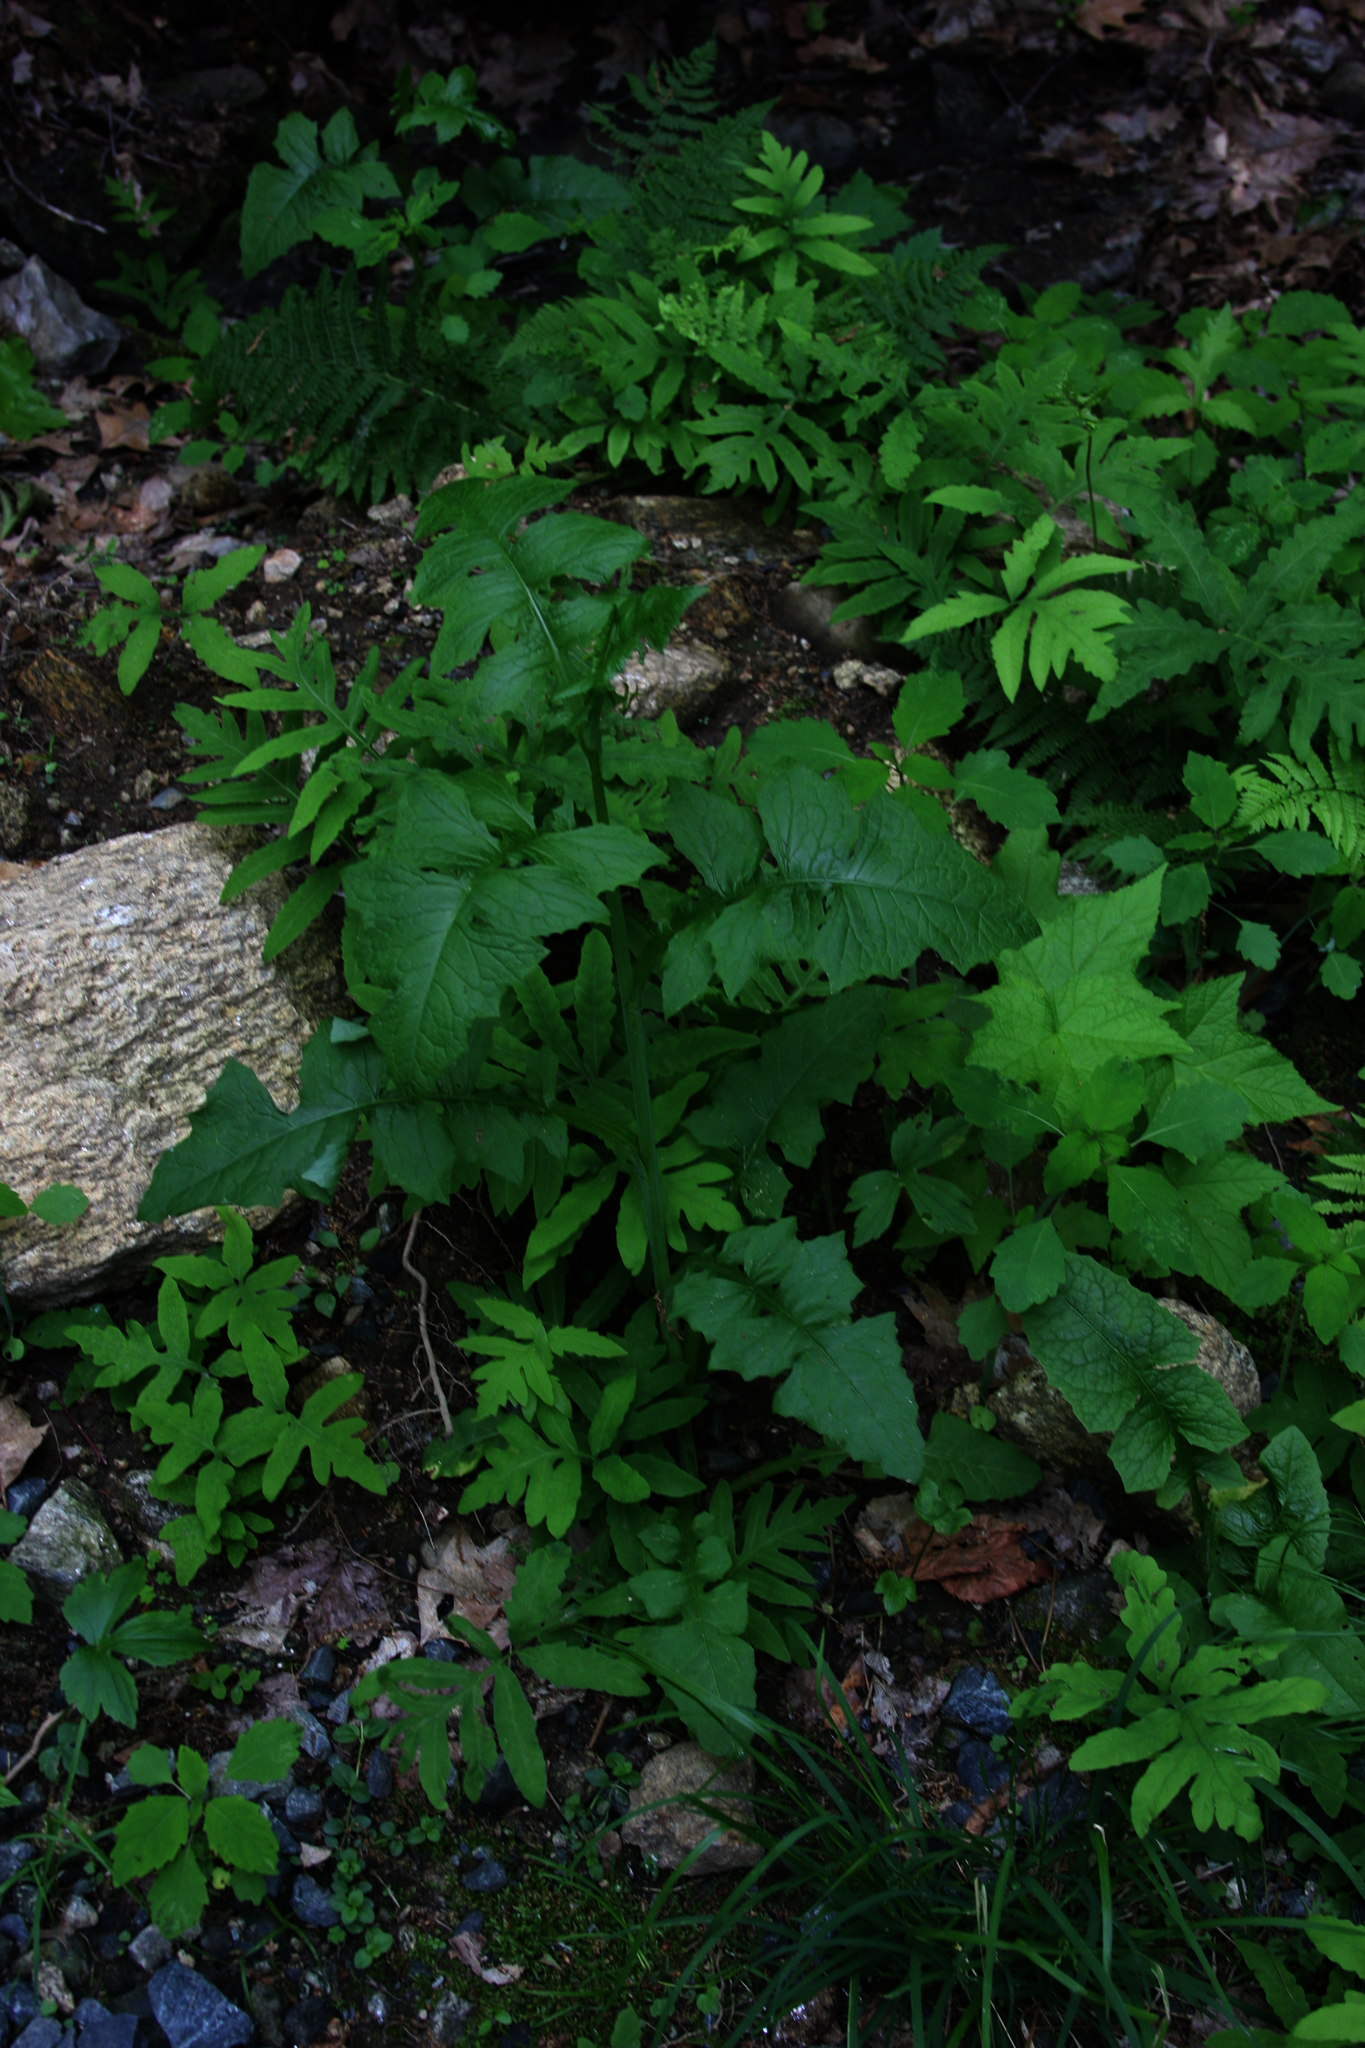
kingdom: Plantae
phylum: Tracheophyta
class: Polypodiopsida
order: Polypodiales
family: Onocleaceae
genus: Onoclea
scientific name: Onoclea sensibilis
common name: Sensitive fern
